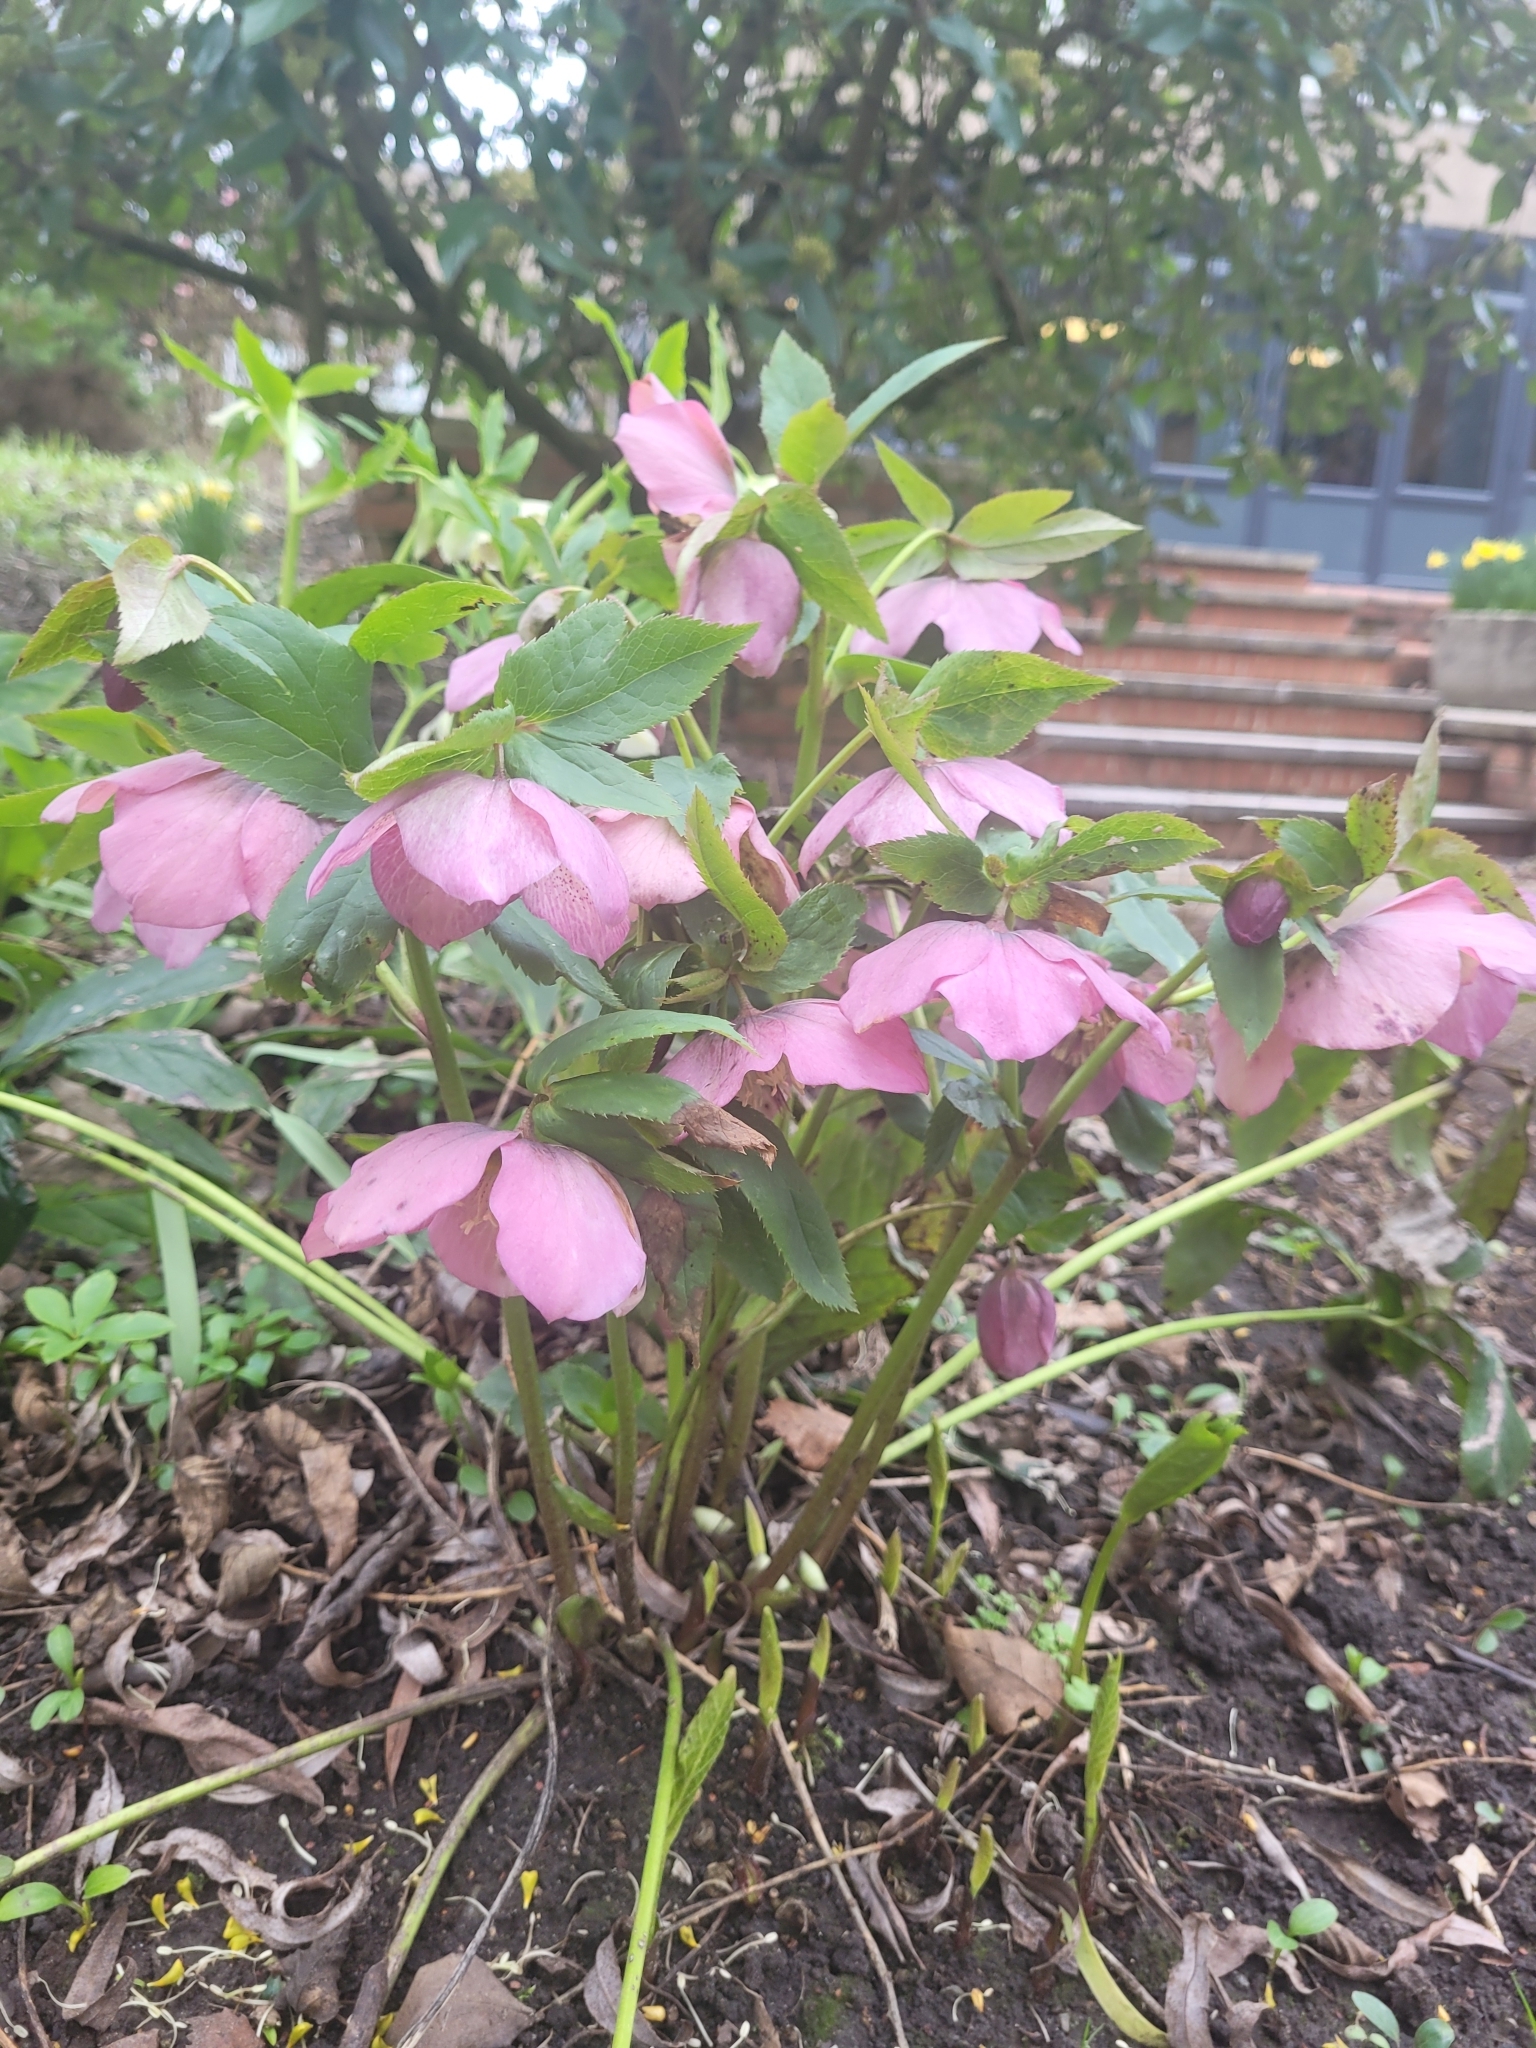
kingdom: Plantae
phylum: Tracheophyta
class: Magnoliopsida
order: Ranunculales
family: Ranunculaceae
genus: Helleborus
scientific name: Helleborus orientalis
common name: Lenten-rose
